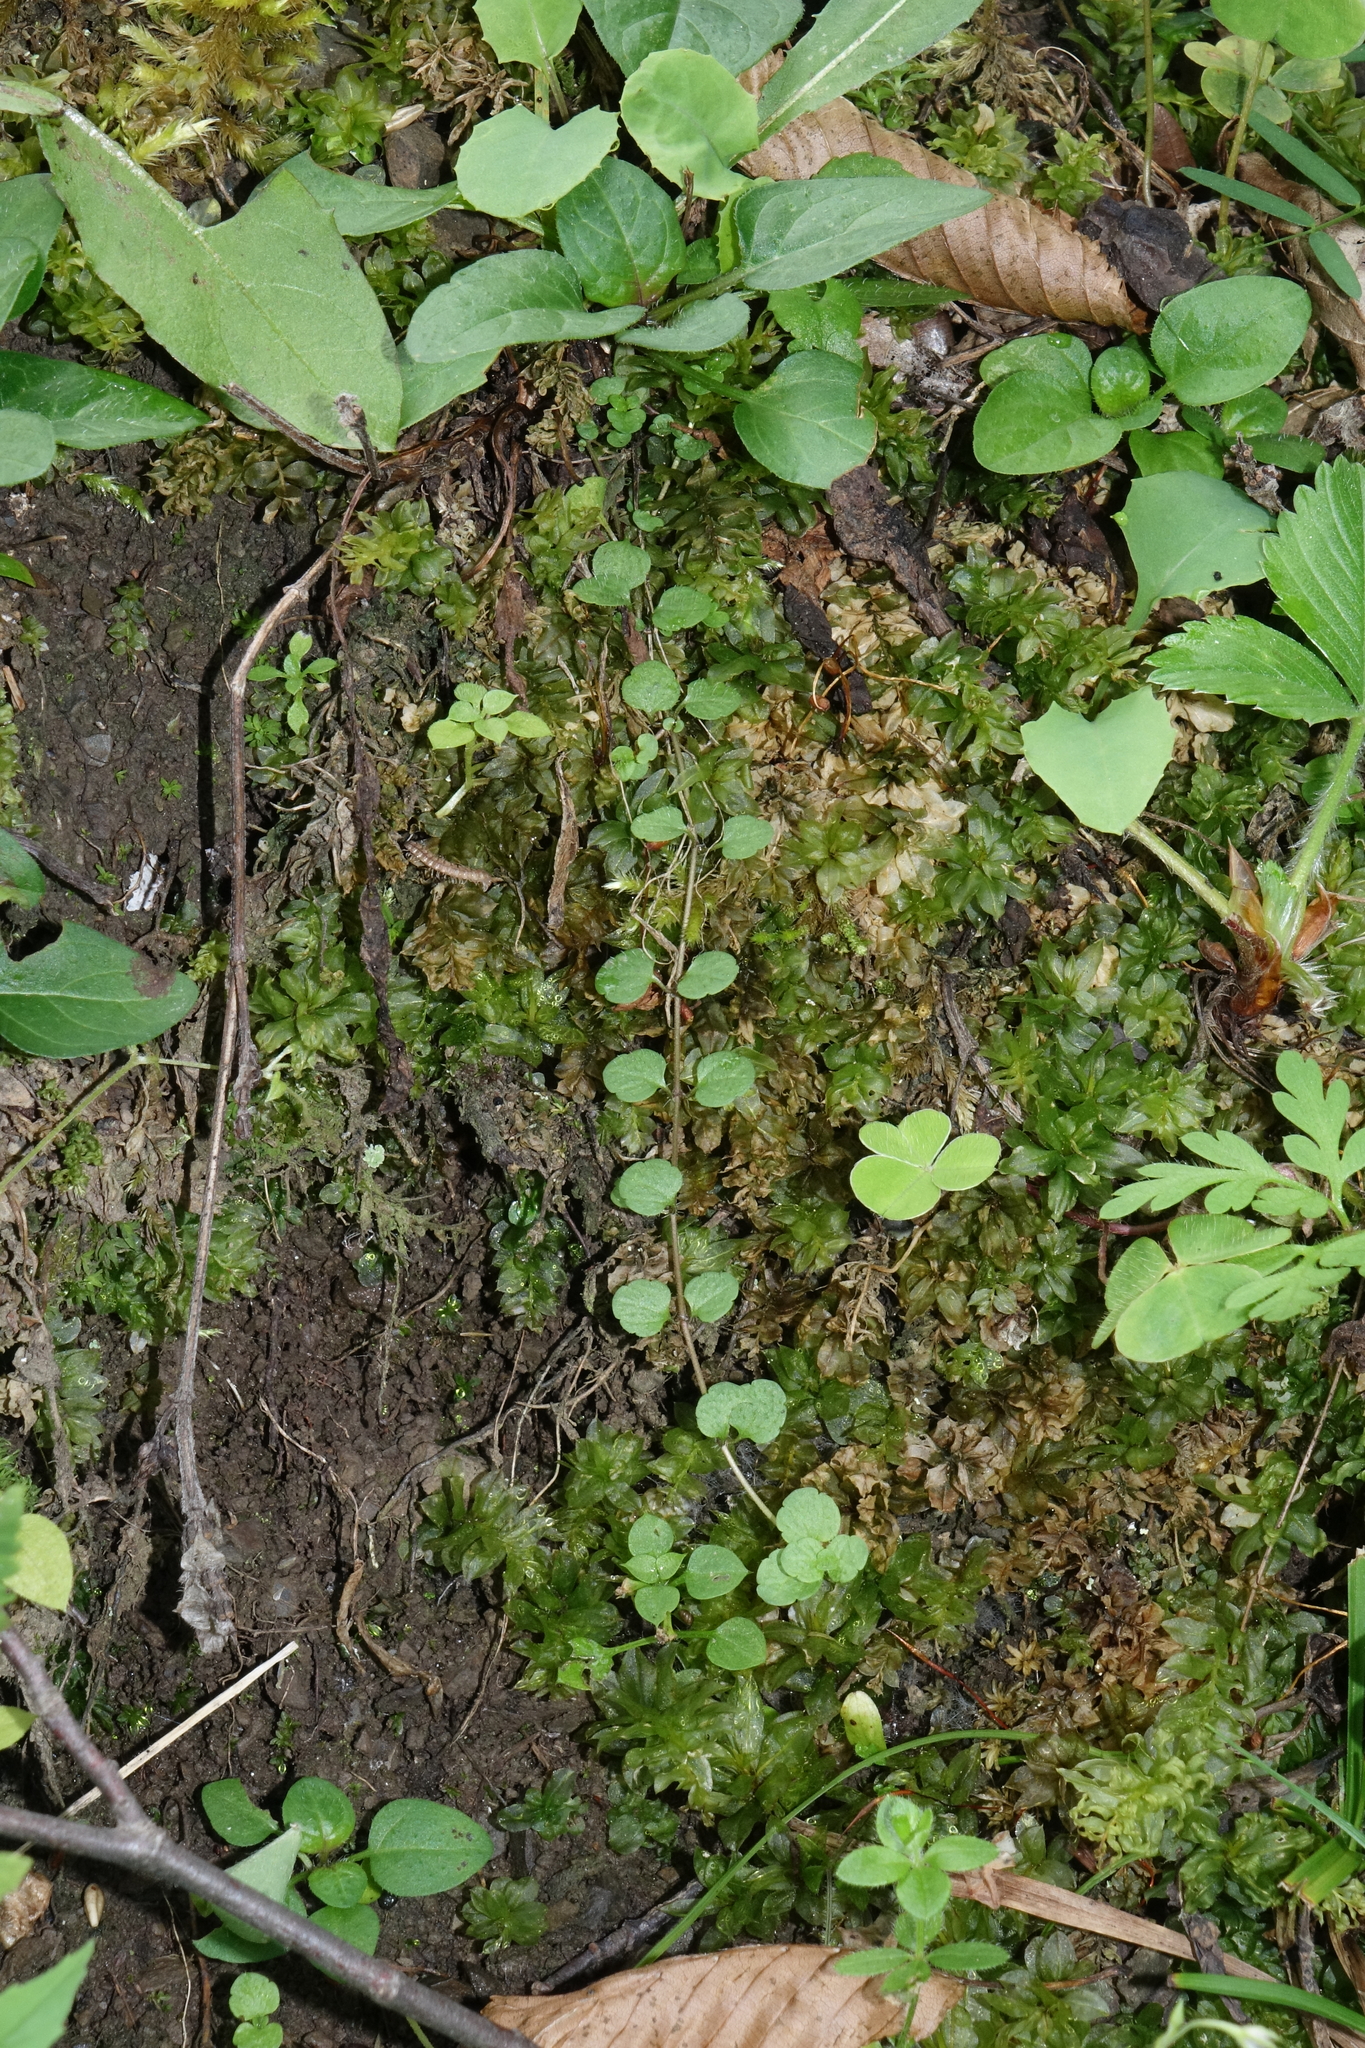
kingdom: Plantae
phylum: Tracheophyta
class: Magnoliopsida
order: Ericales
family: Primulaceae
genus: Lysimachia
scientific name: Lysimachia nummularia
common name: Moneywort
